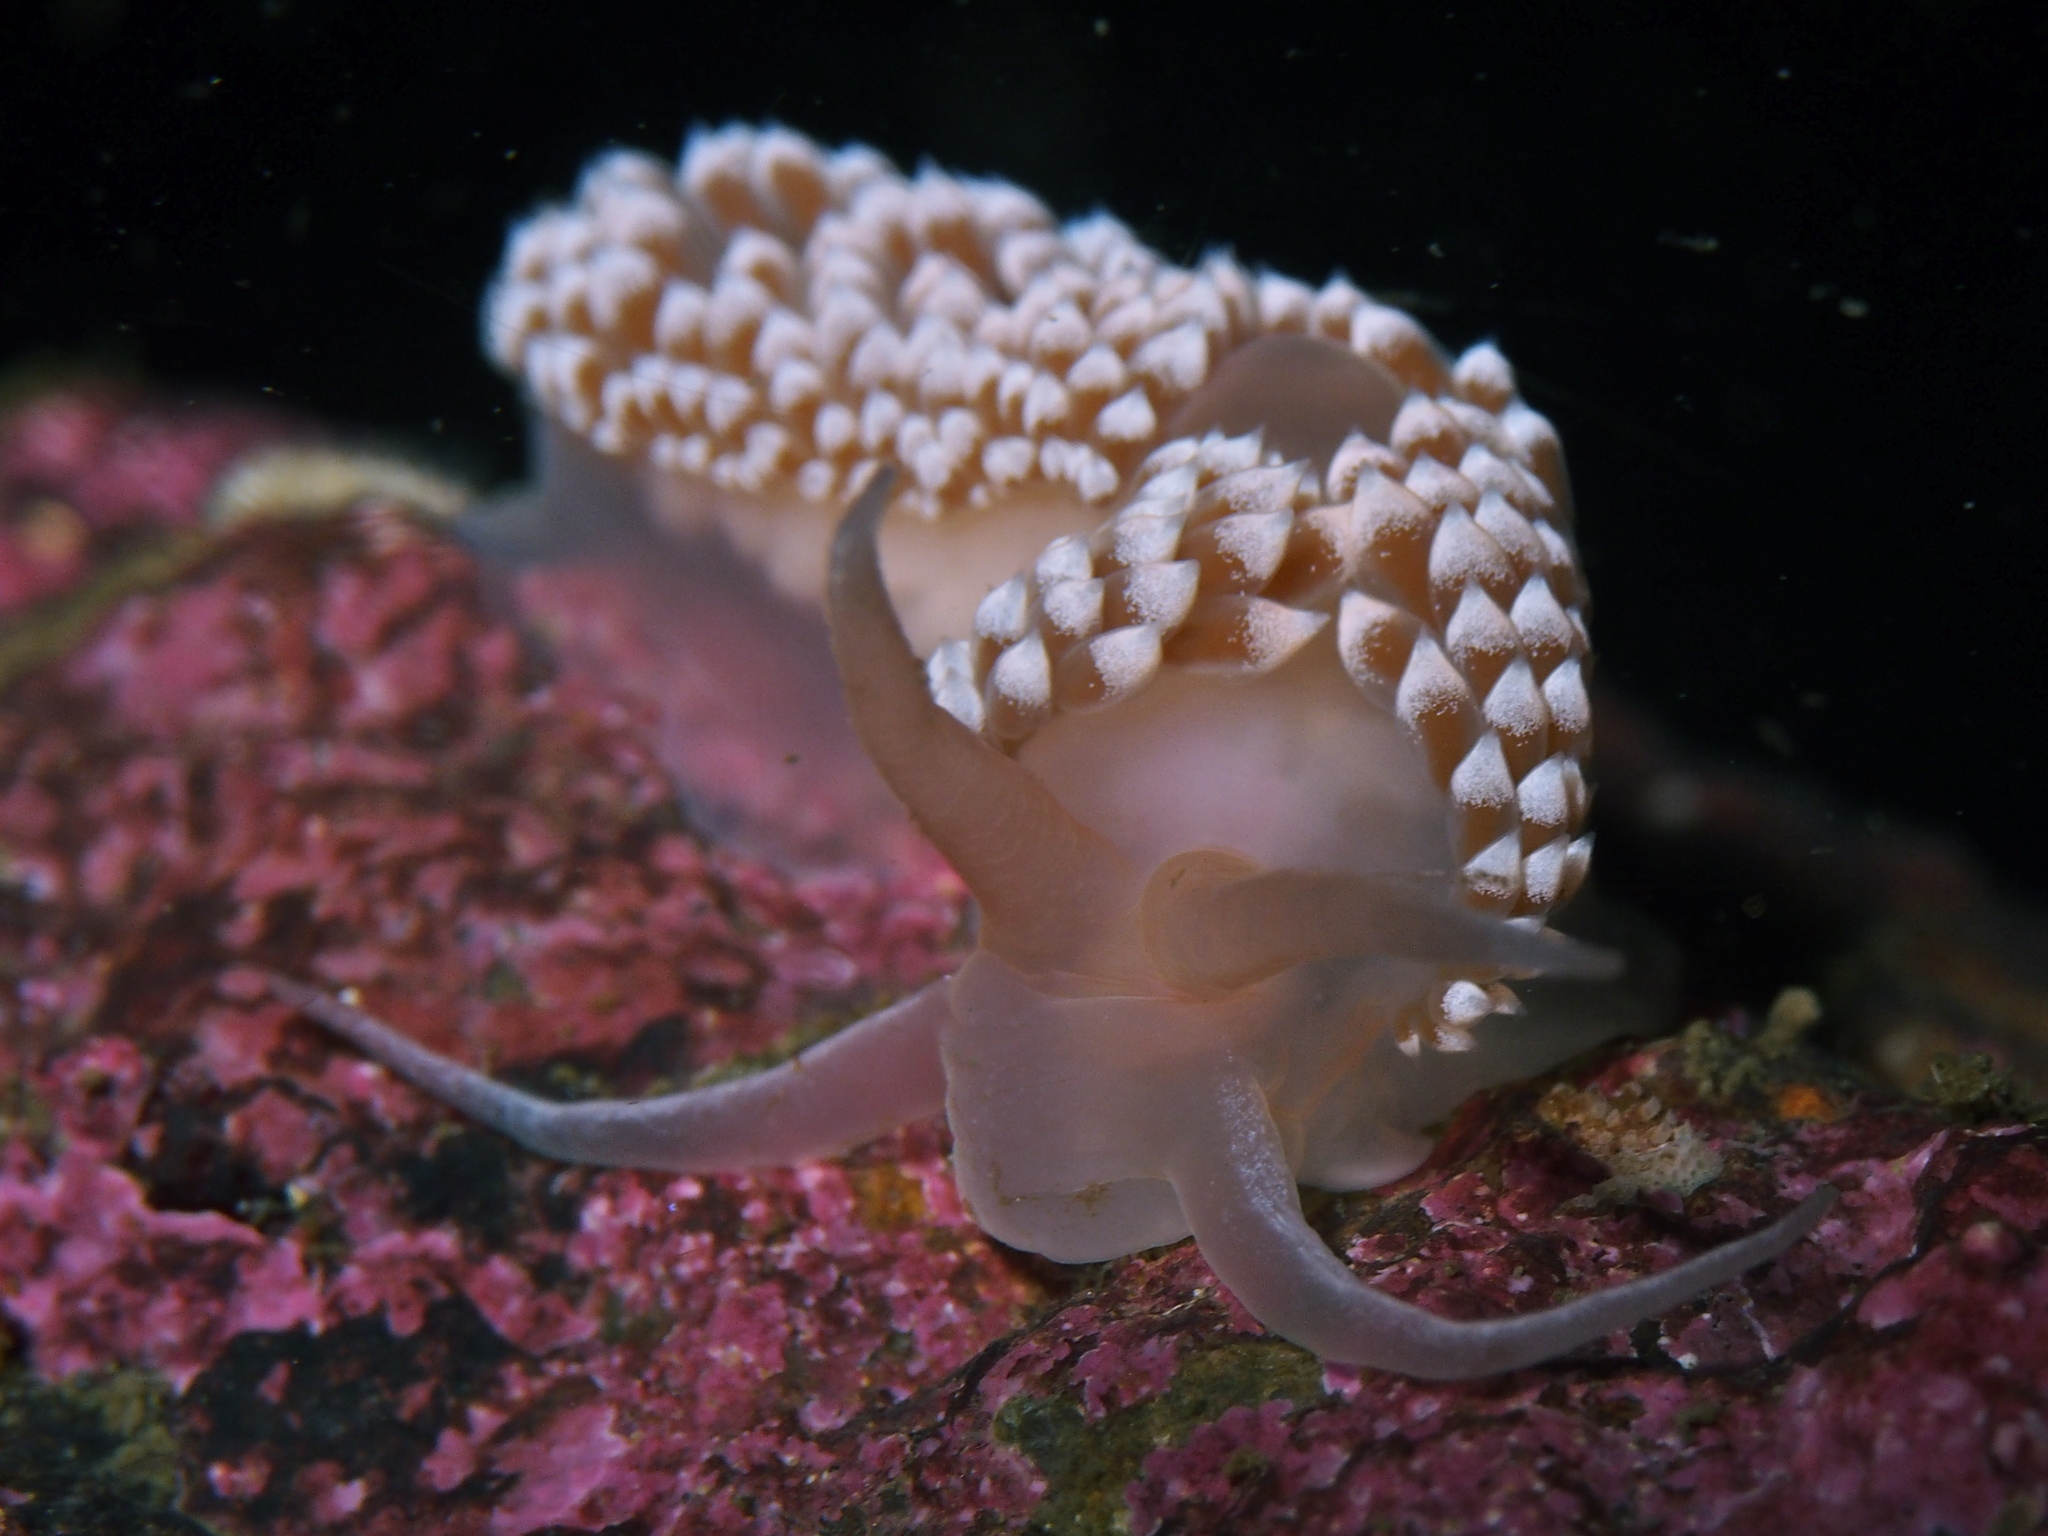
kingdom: Animalia
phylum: Mollusca
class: Gastropoda
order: Nudibranchia
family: Coryphellidae
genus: Coryphella
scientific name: Coryphella verrucosa
